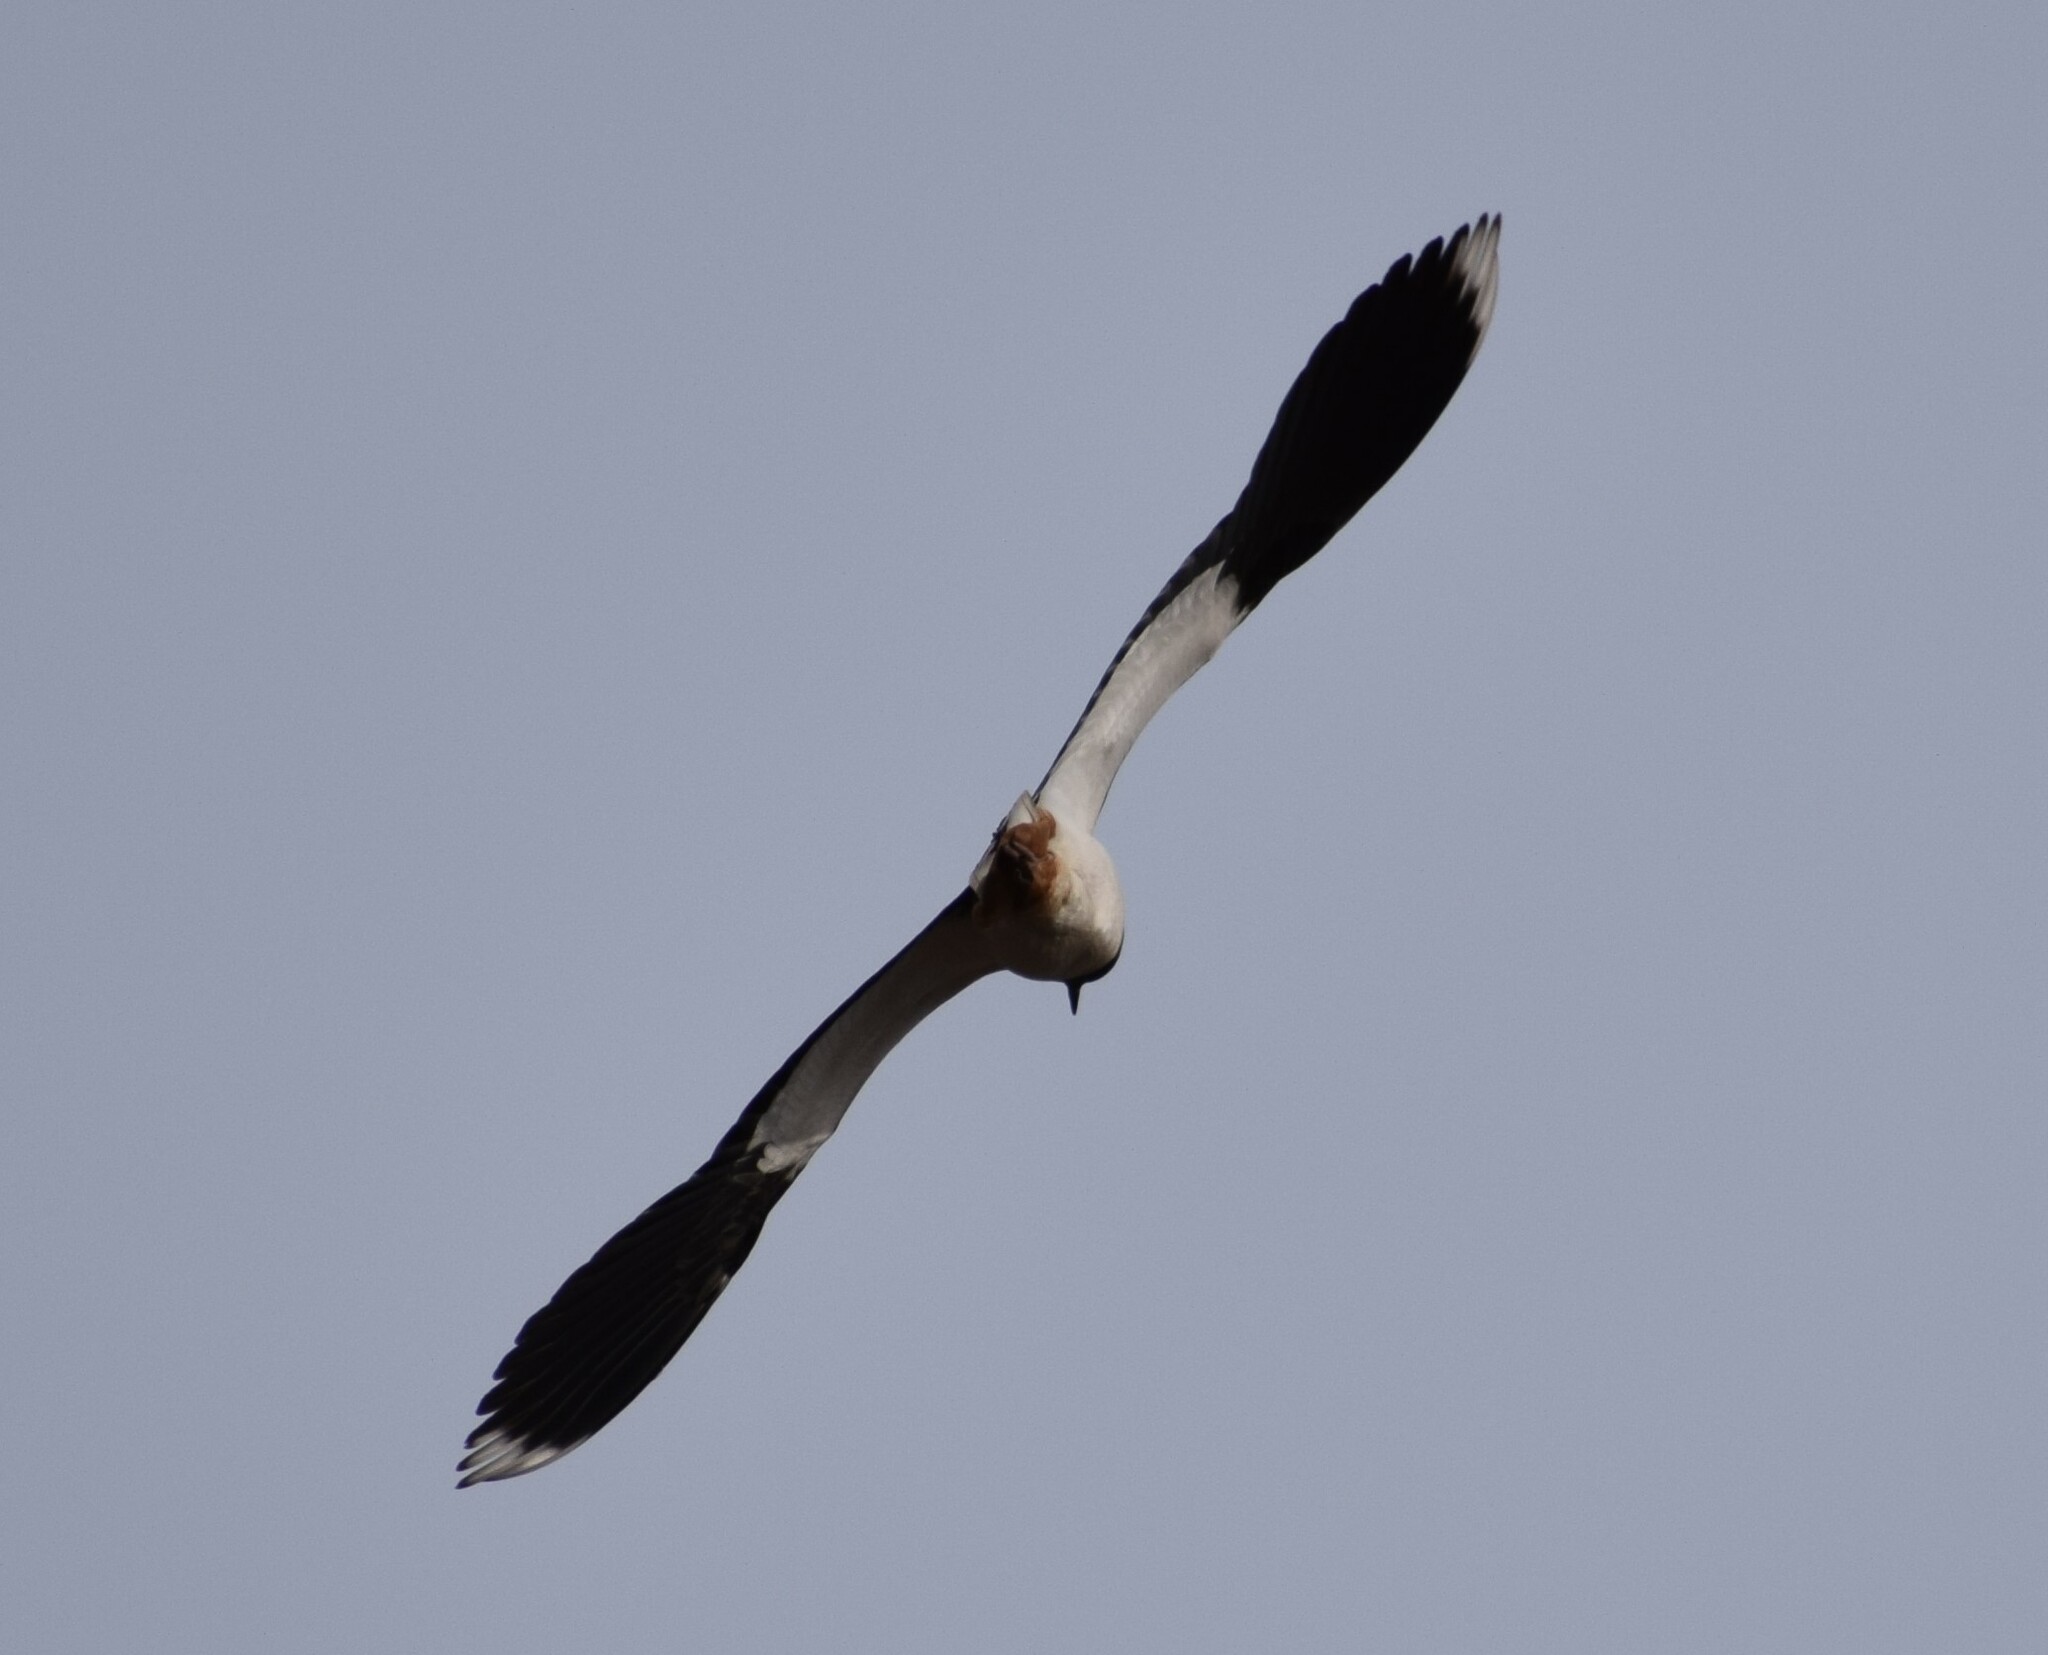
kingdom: Animalia
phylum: Chordata
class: Aves
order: Charadriiformes
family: Charadriidae
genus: Vanellus
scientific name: Vanellus vanellus
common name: Northern lapwing
